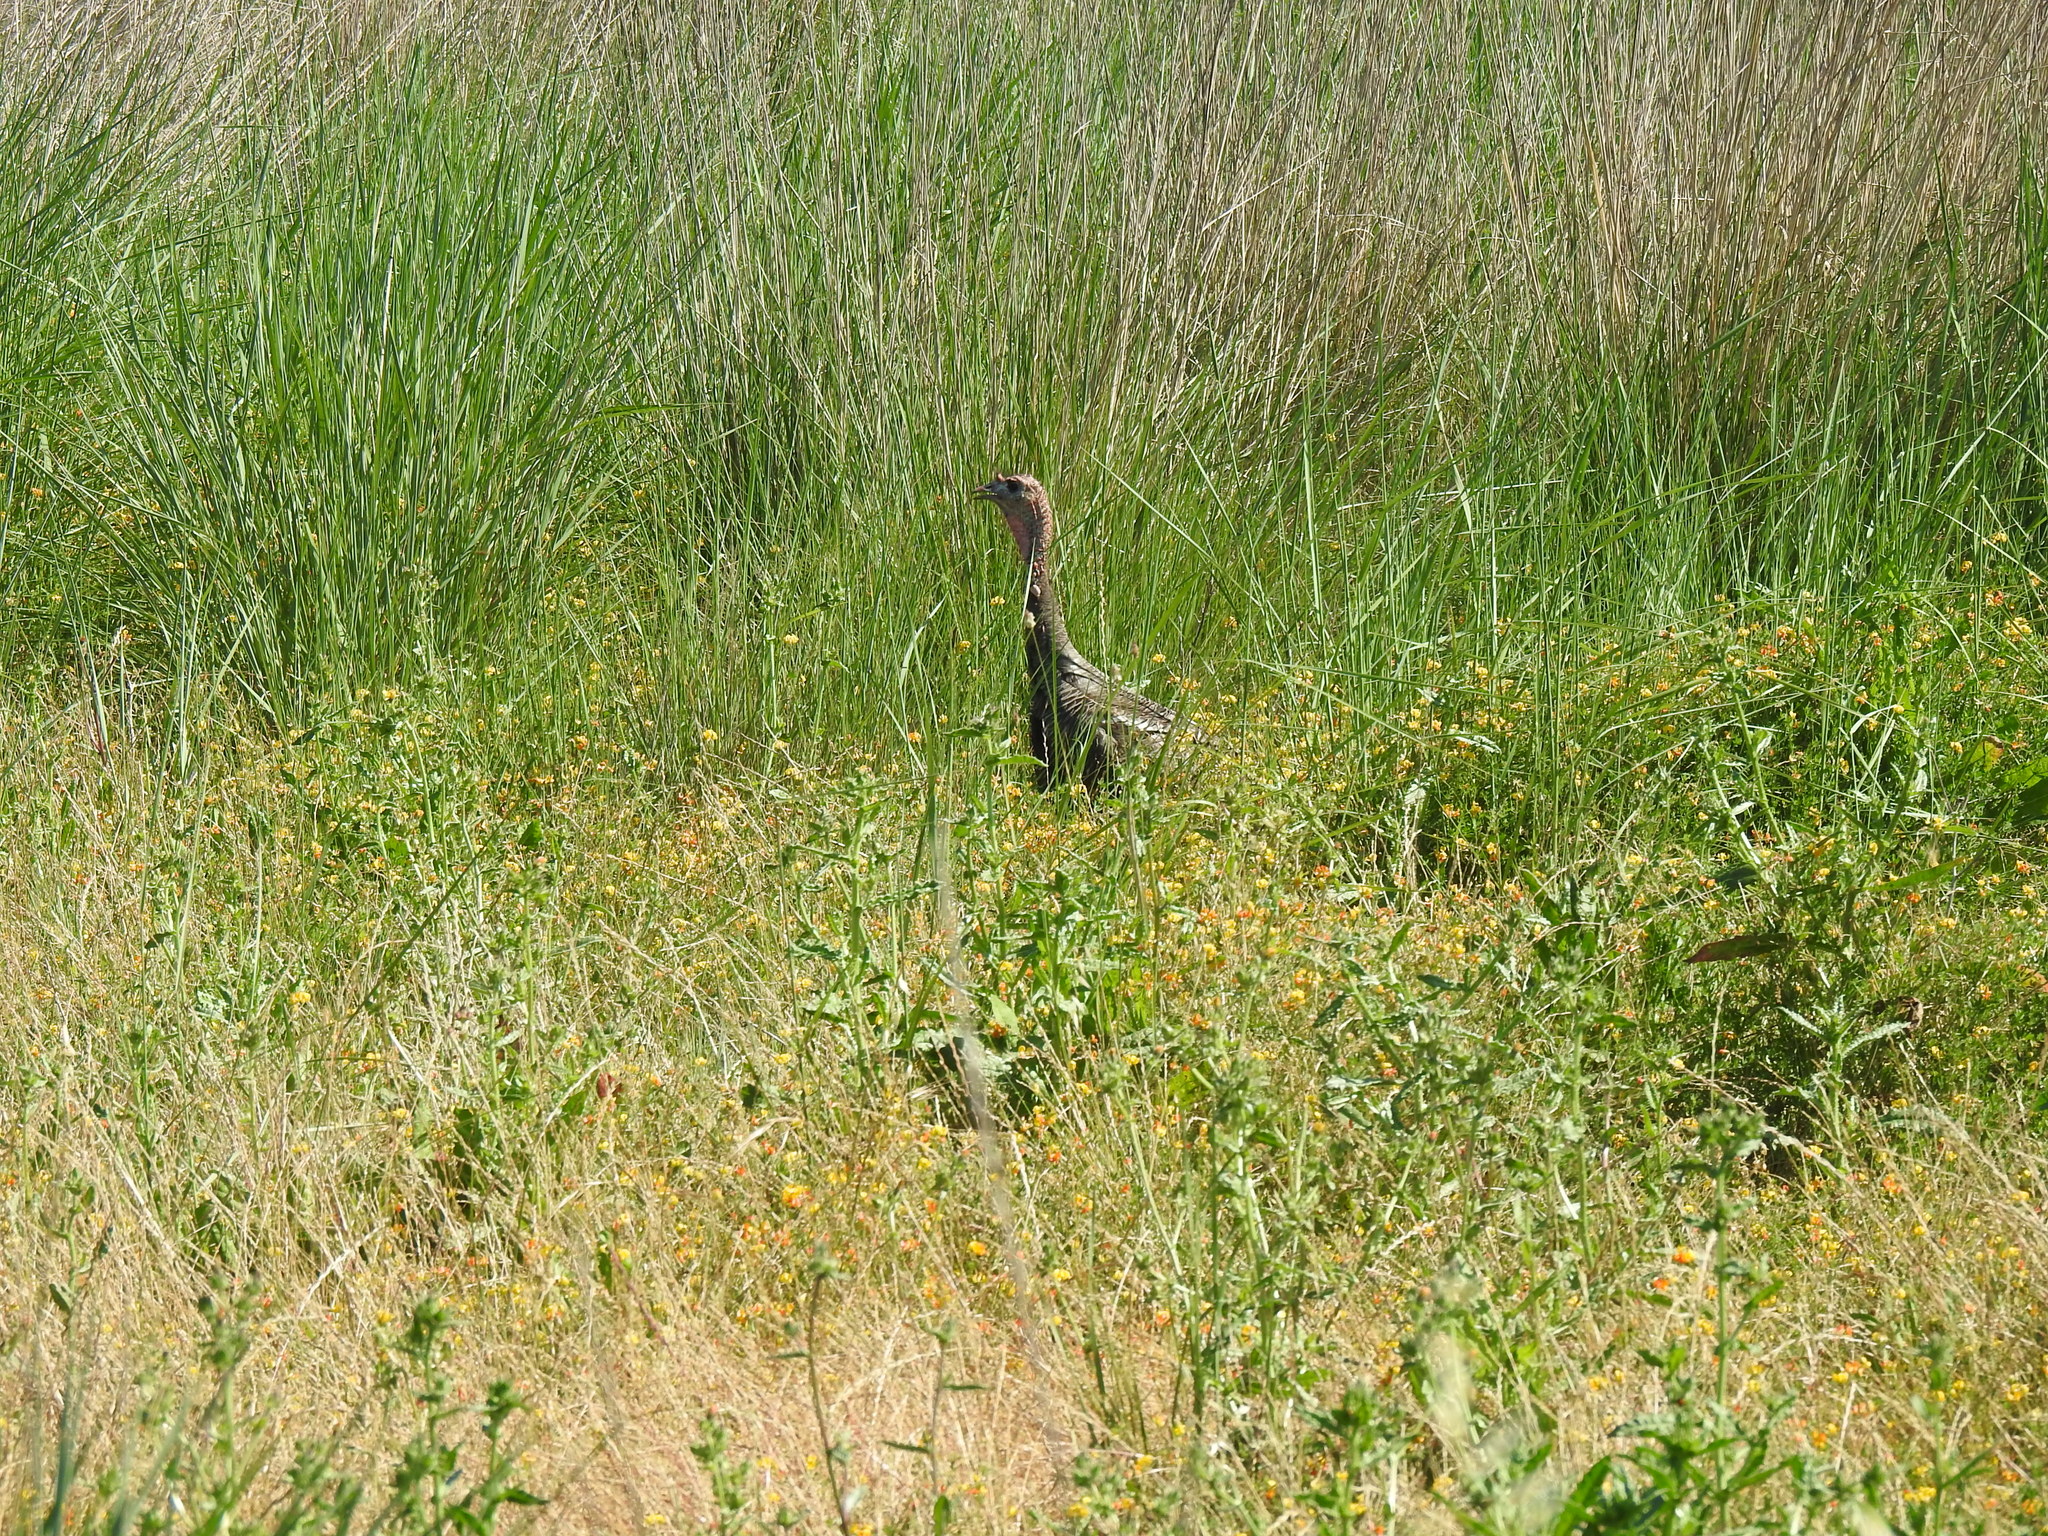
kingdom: Animalia
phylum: Chordata
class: Aves
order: Galliformes
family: Phasianidae
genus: Meleagris
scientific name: Meleagris gallopavo
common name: Wild turkey
